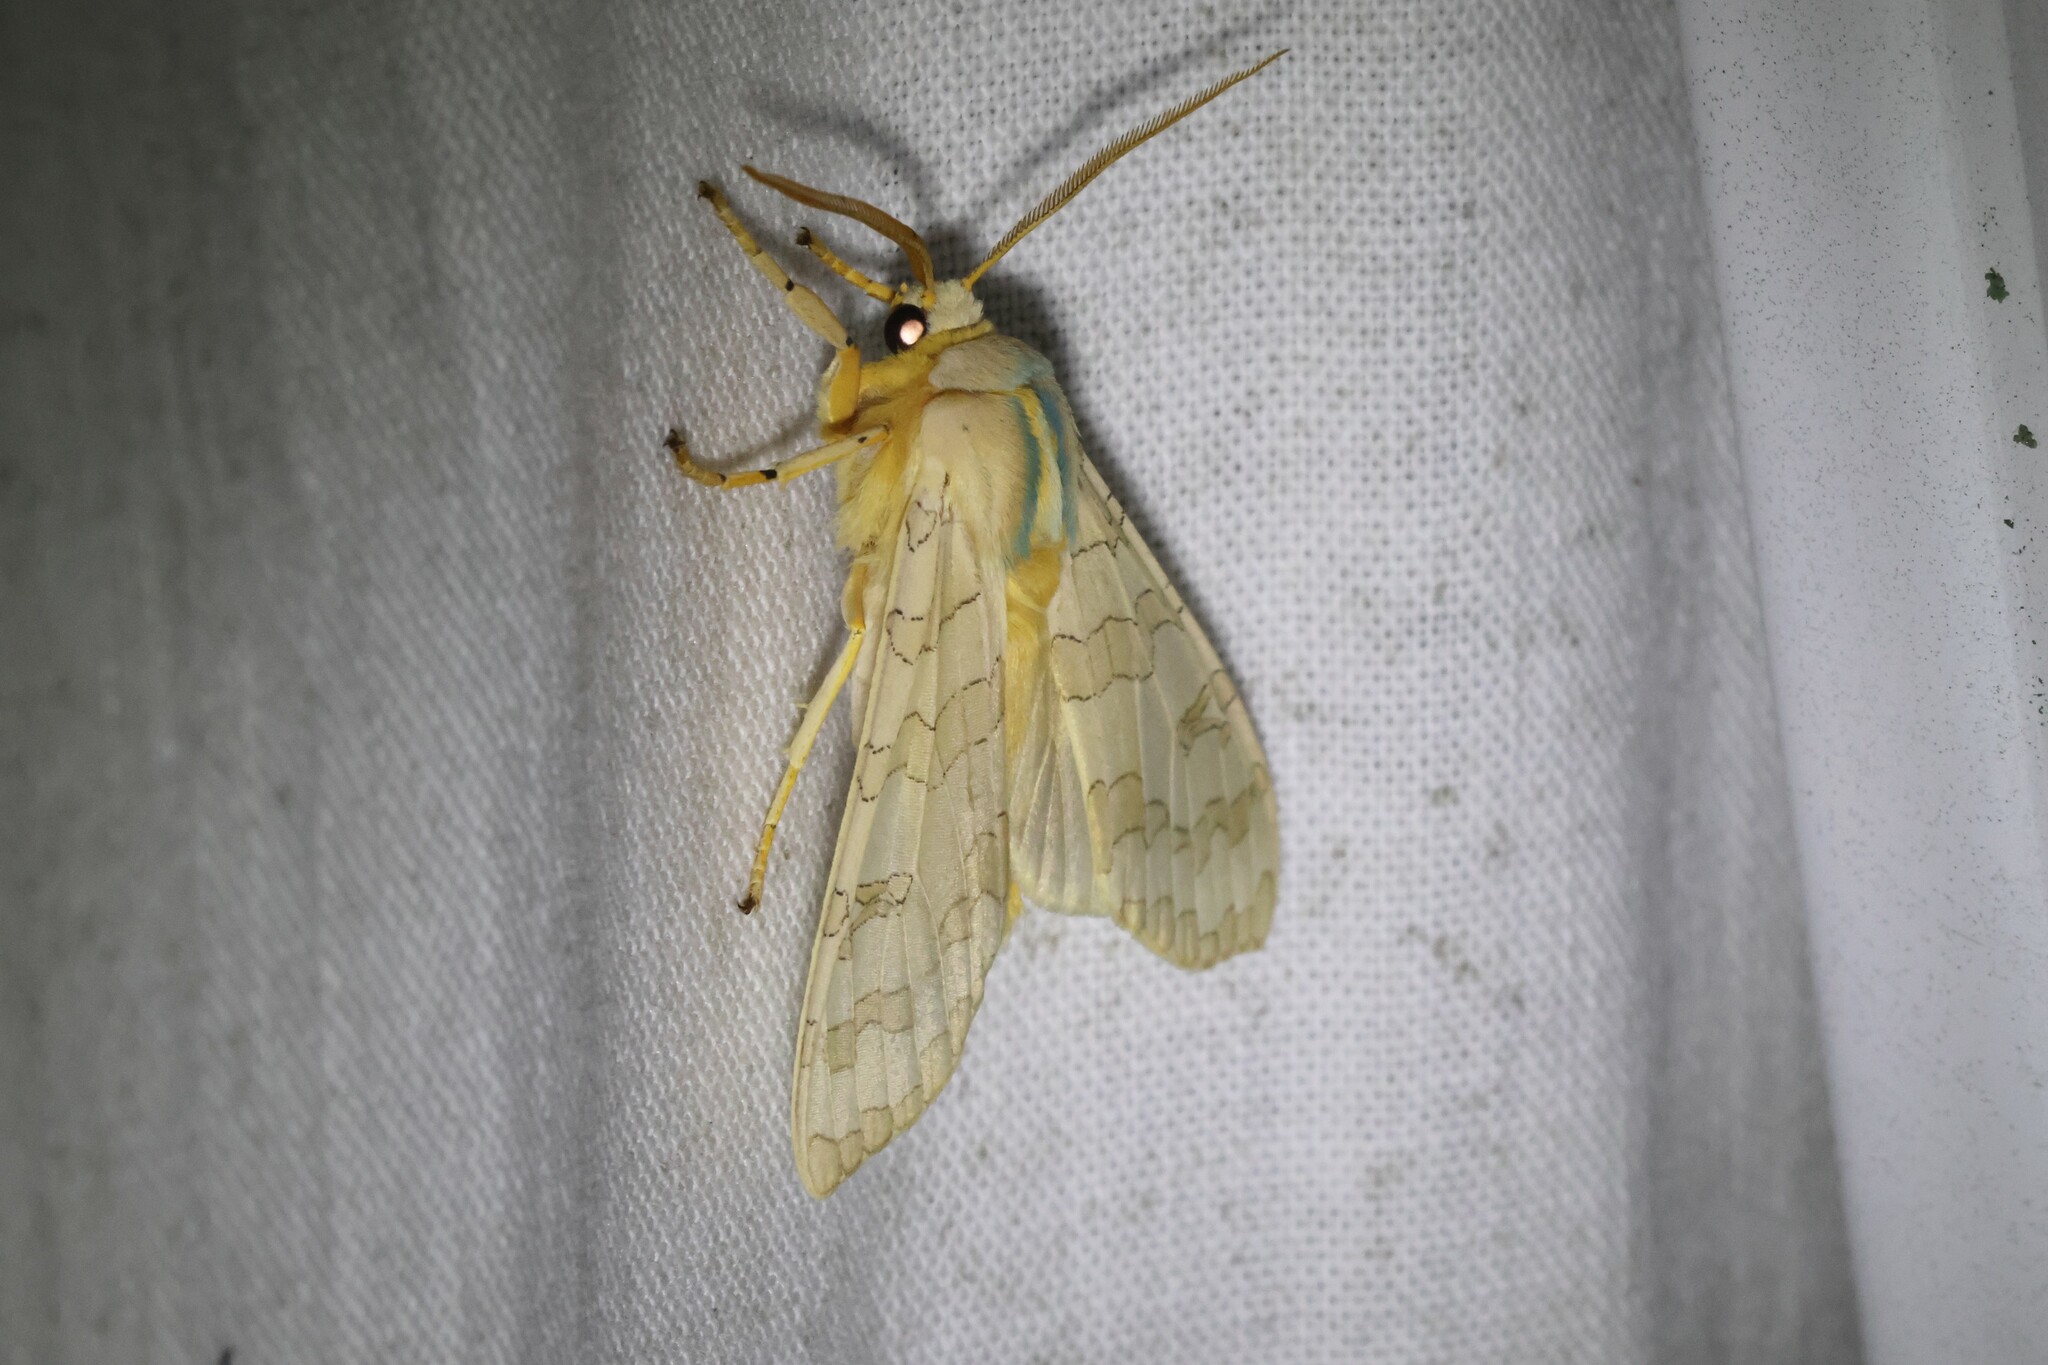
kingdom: Animalia
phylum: Arthropoda
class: Insecta
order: Lepidoptera
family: Erebidae
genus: Halysidota
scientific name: Halysidota tessellaris
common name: Banded tussock moth
